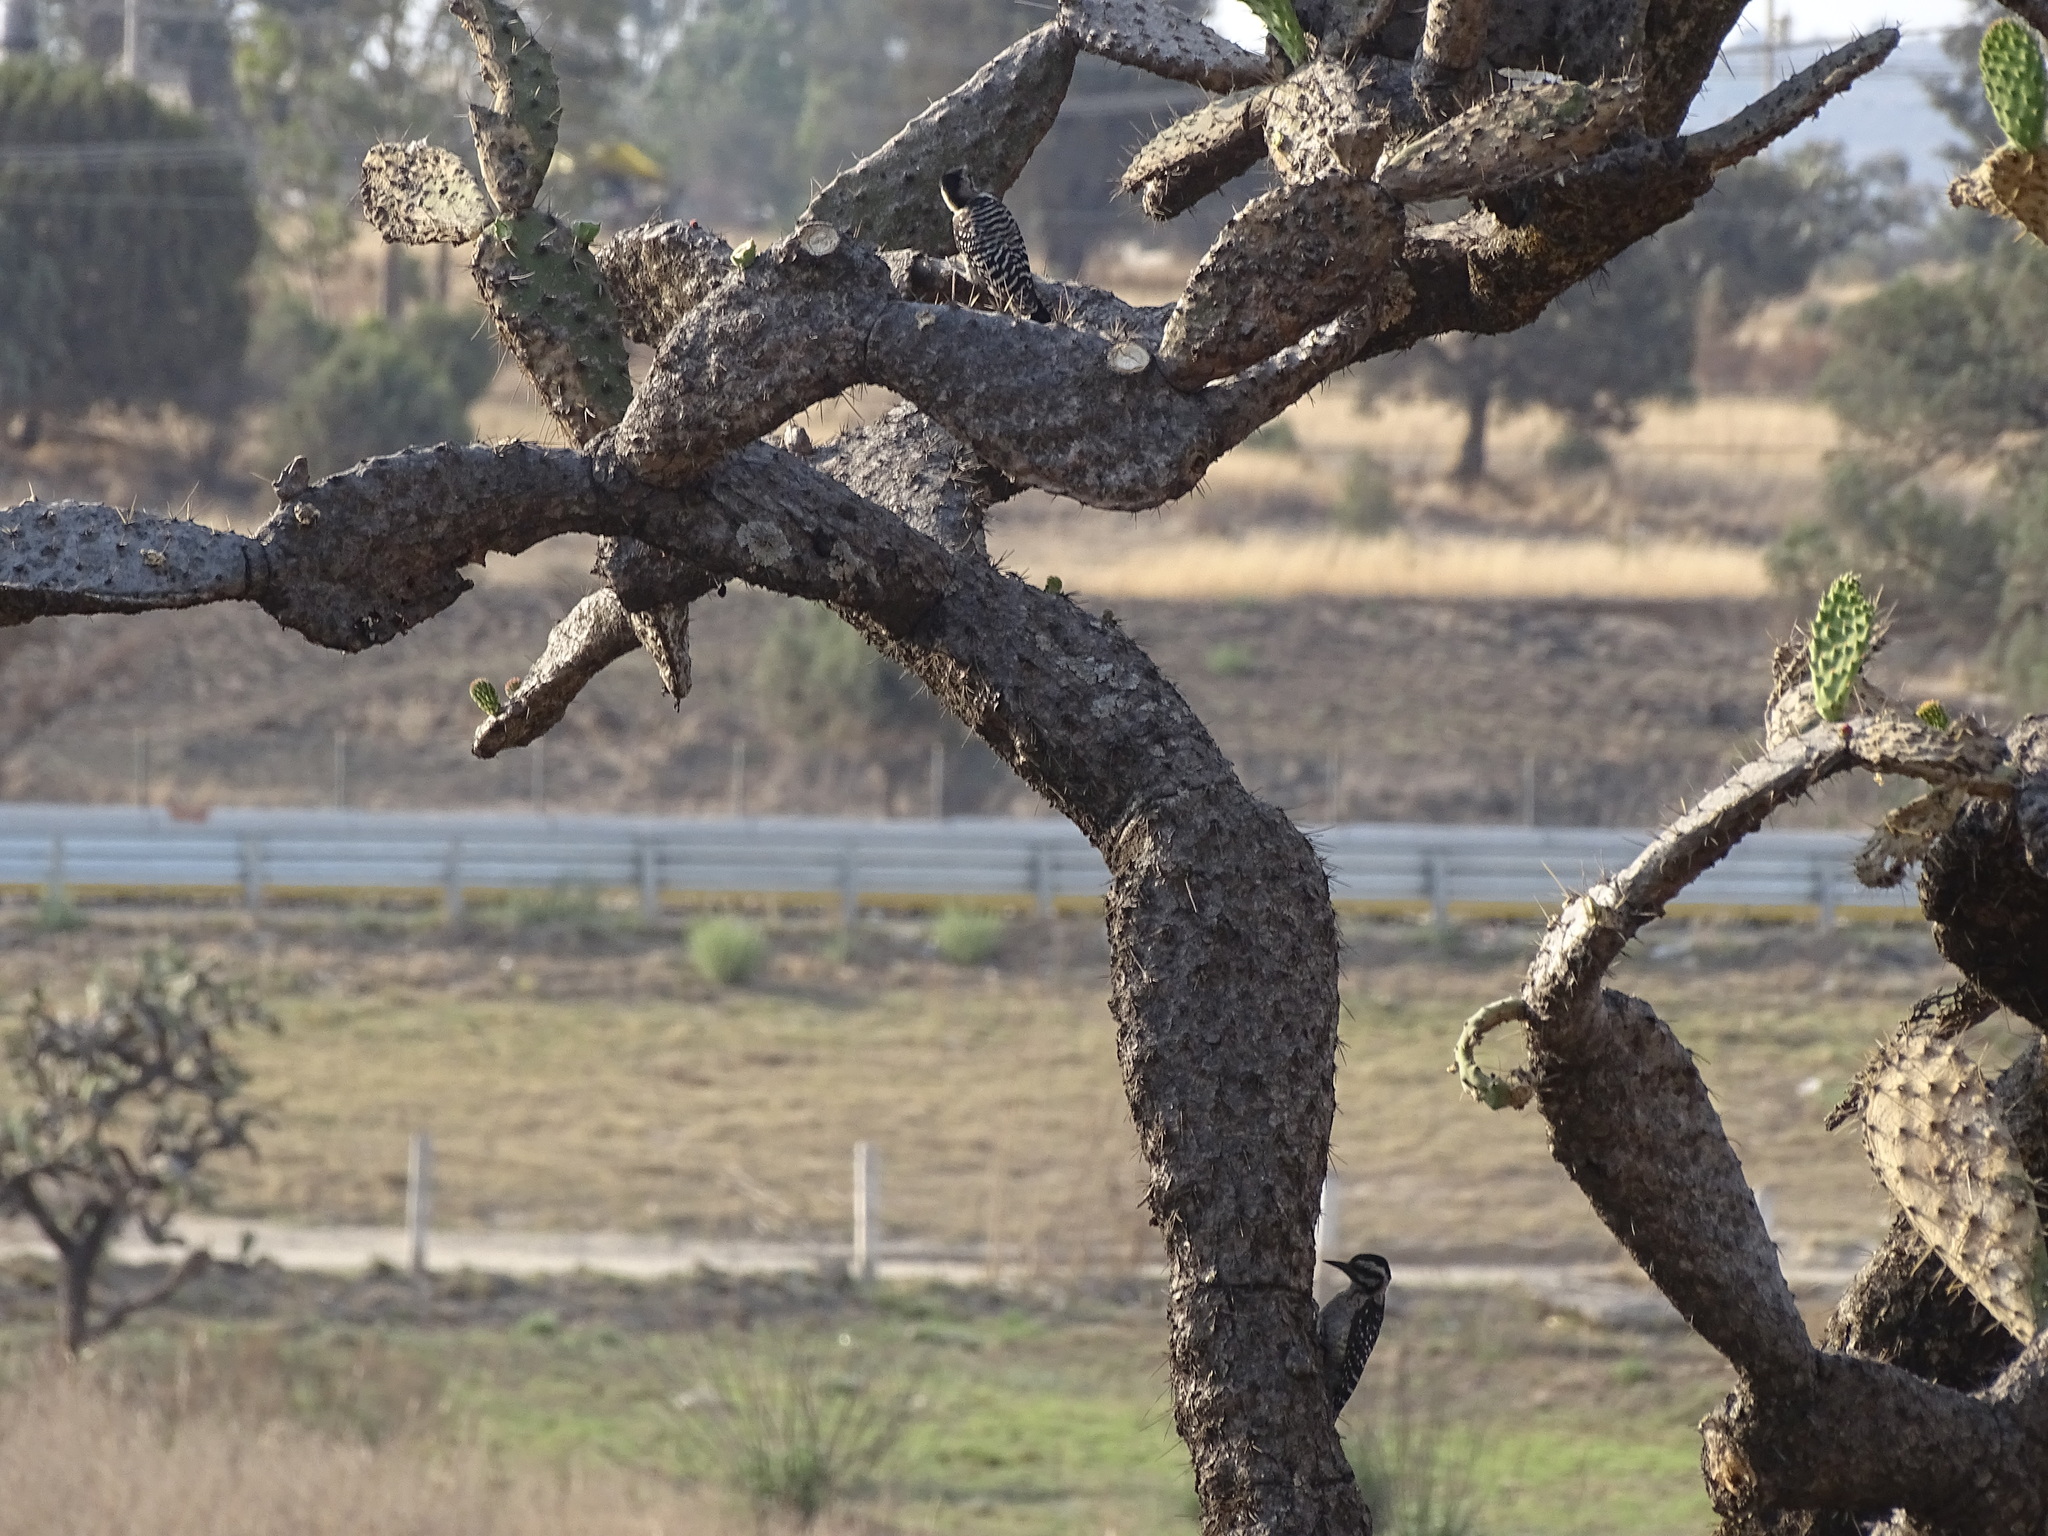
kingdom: Plantae
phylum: Tracheophyta
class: Magnoliopsida
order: Caryophyllales
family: Cactaceae
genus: Opuntia
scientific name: Opuntia tomentosa
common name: Woollyjoint pricklypear
